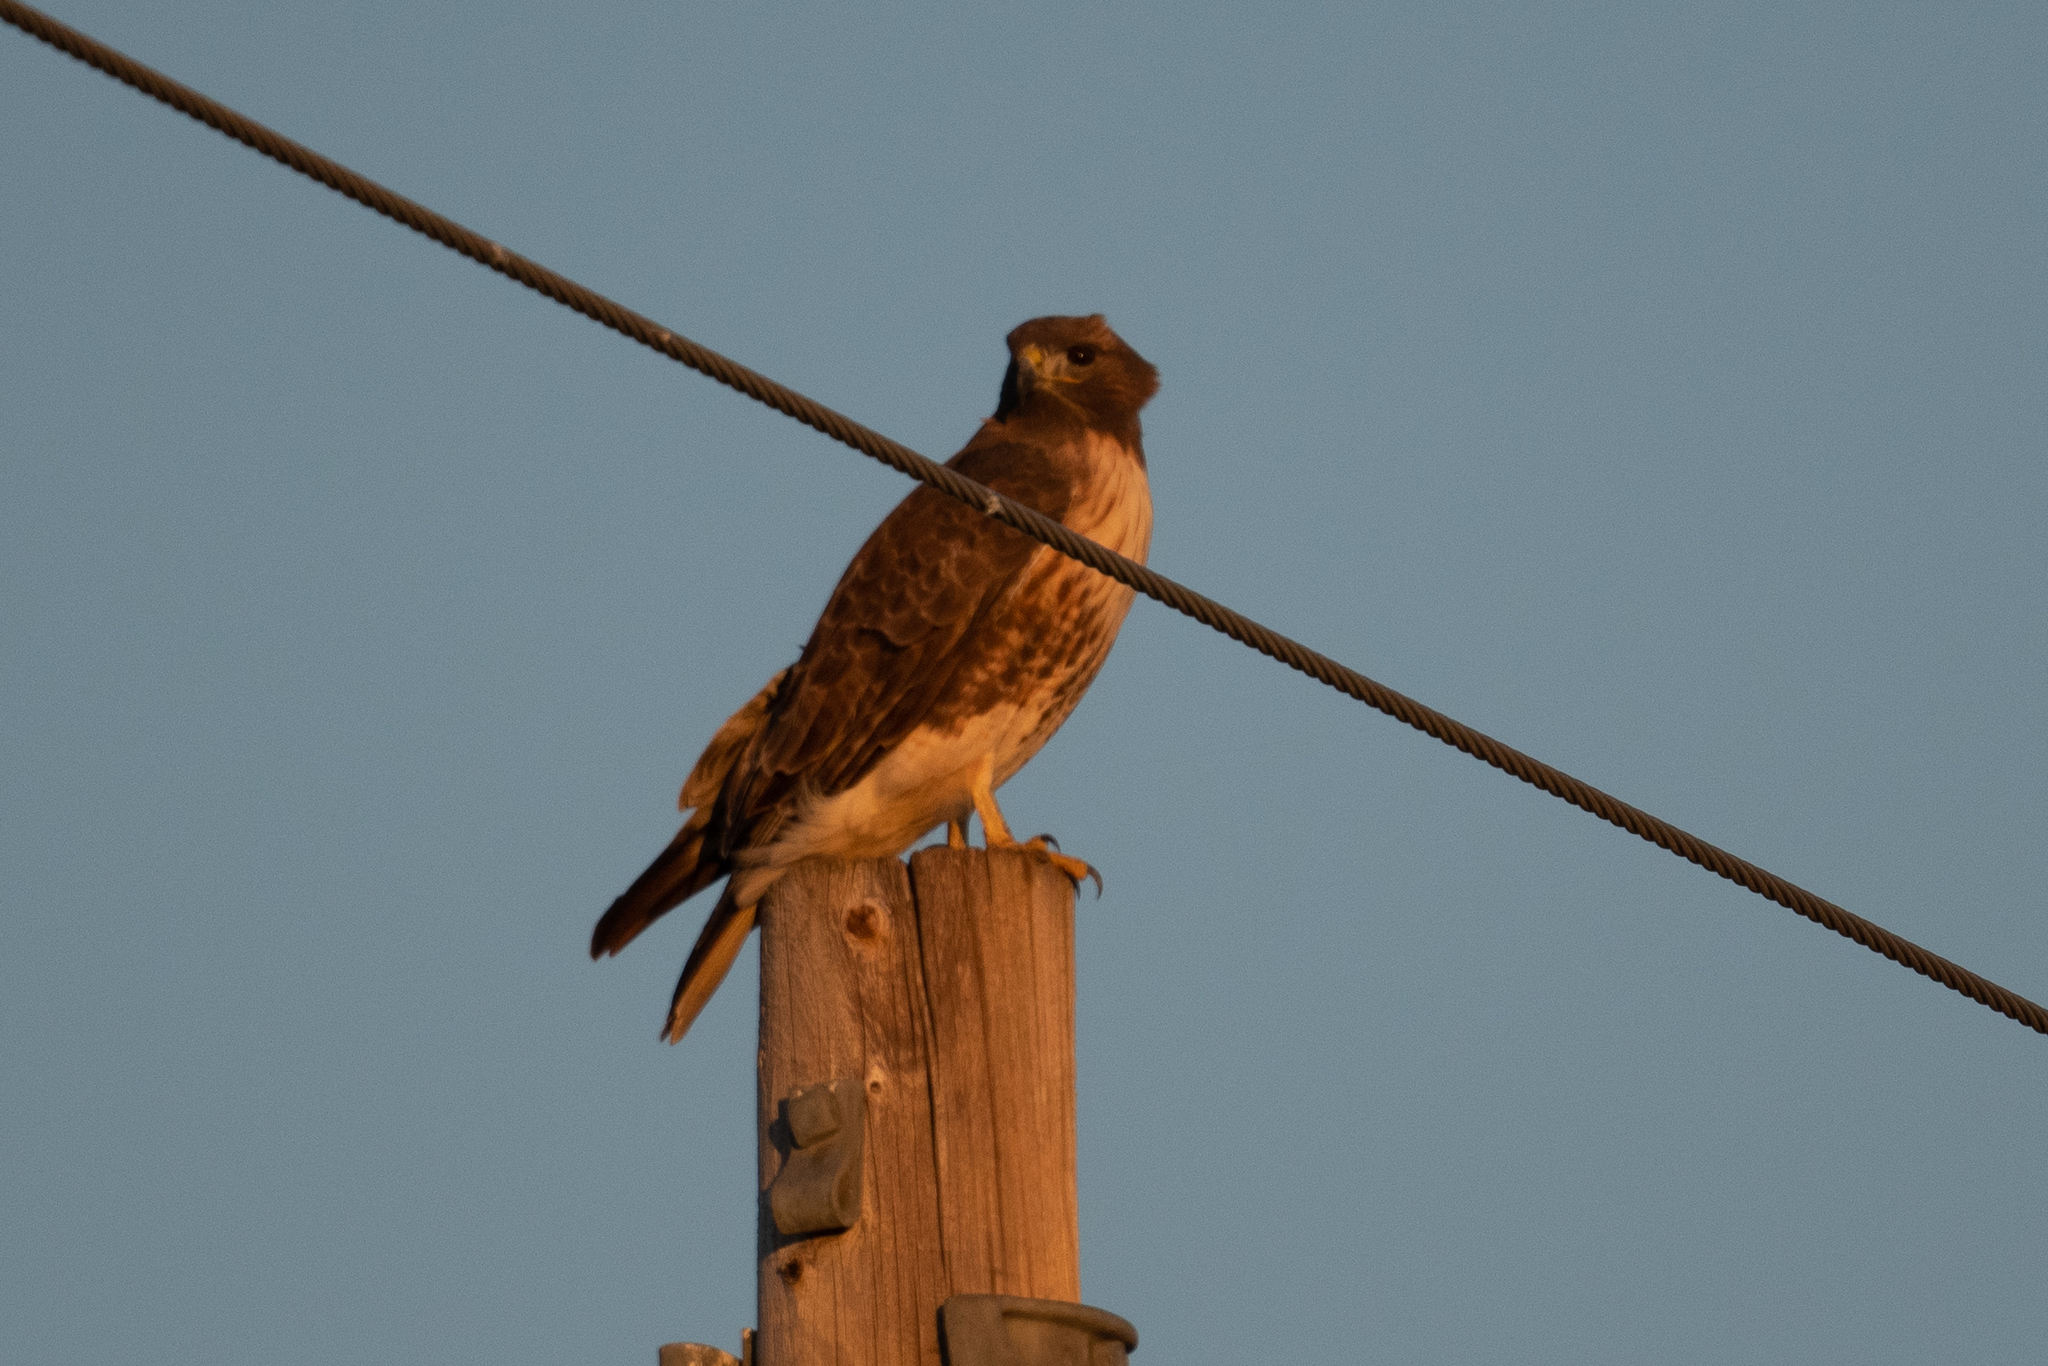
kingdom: Animalia
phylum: Chordata
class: Aves
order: Accipitriformes
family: Accipitridae
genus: Buteo
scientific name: Buteo jamaicensis
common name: Red-tailed hawk
